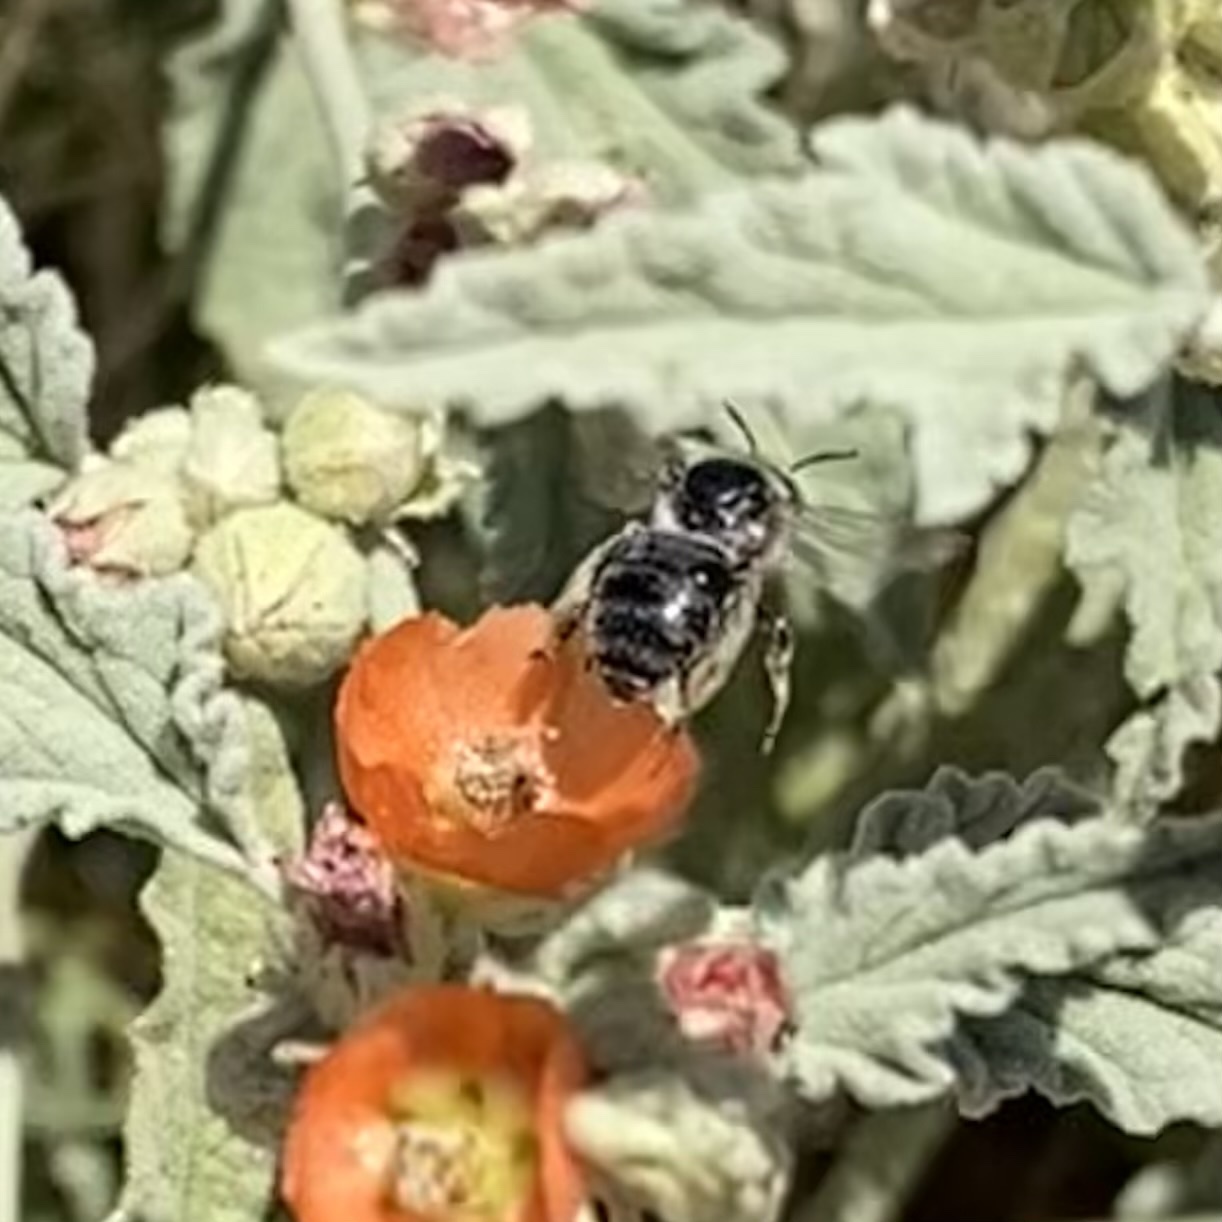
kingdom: Animalia
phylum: Arthropoda
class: Insecta
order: Hymenoptera
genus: Coquillettapis
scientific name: Coquillettapis
